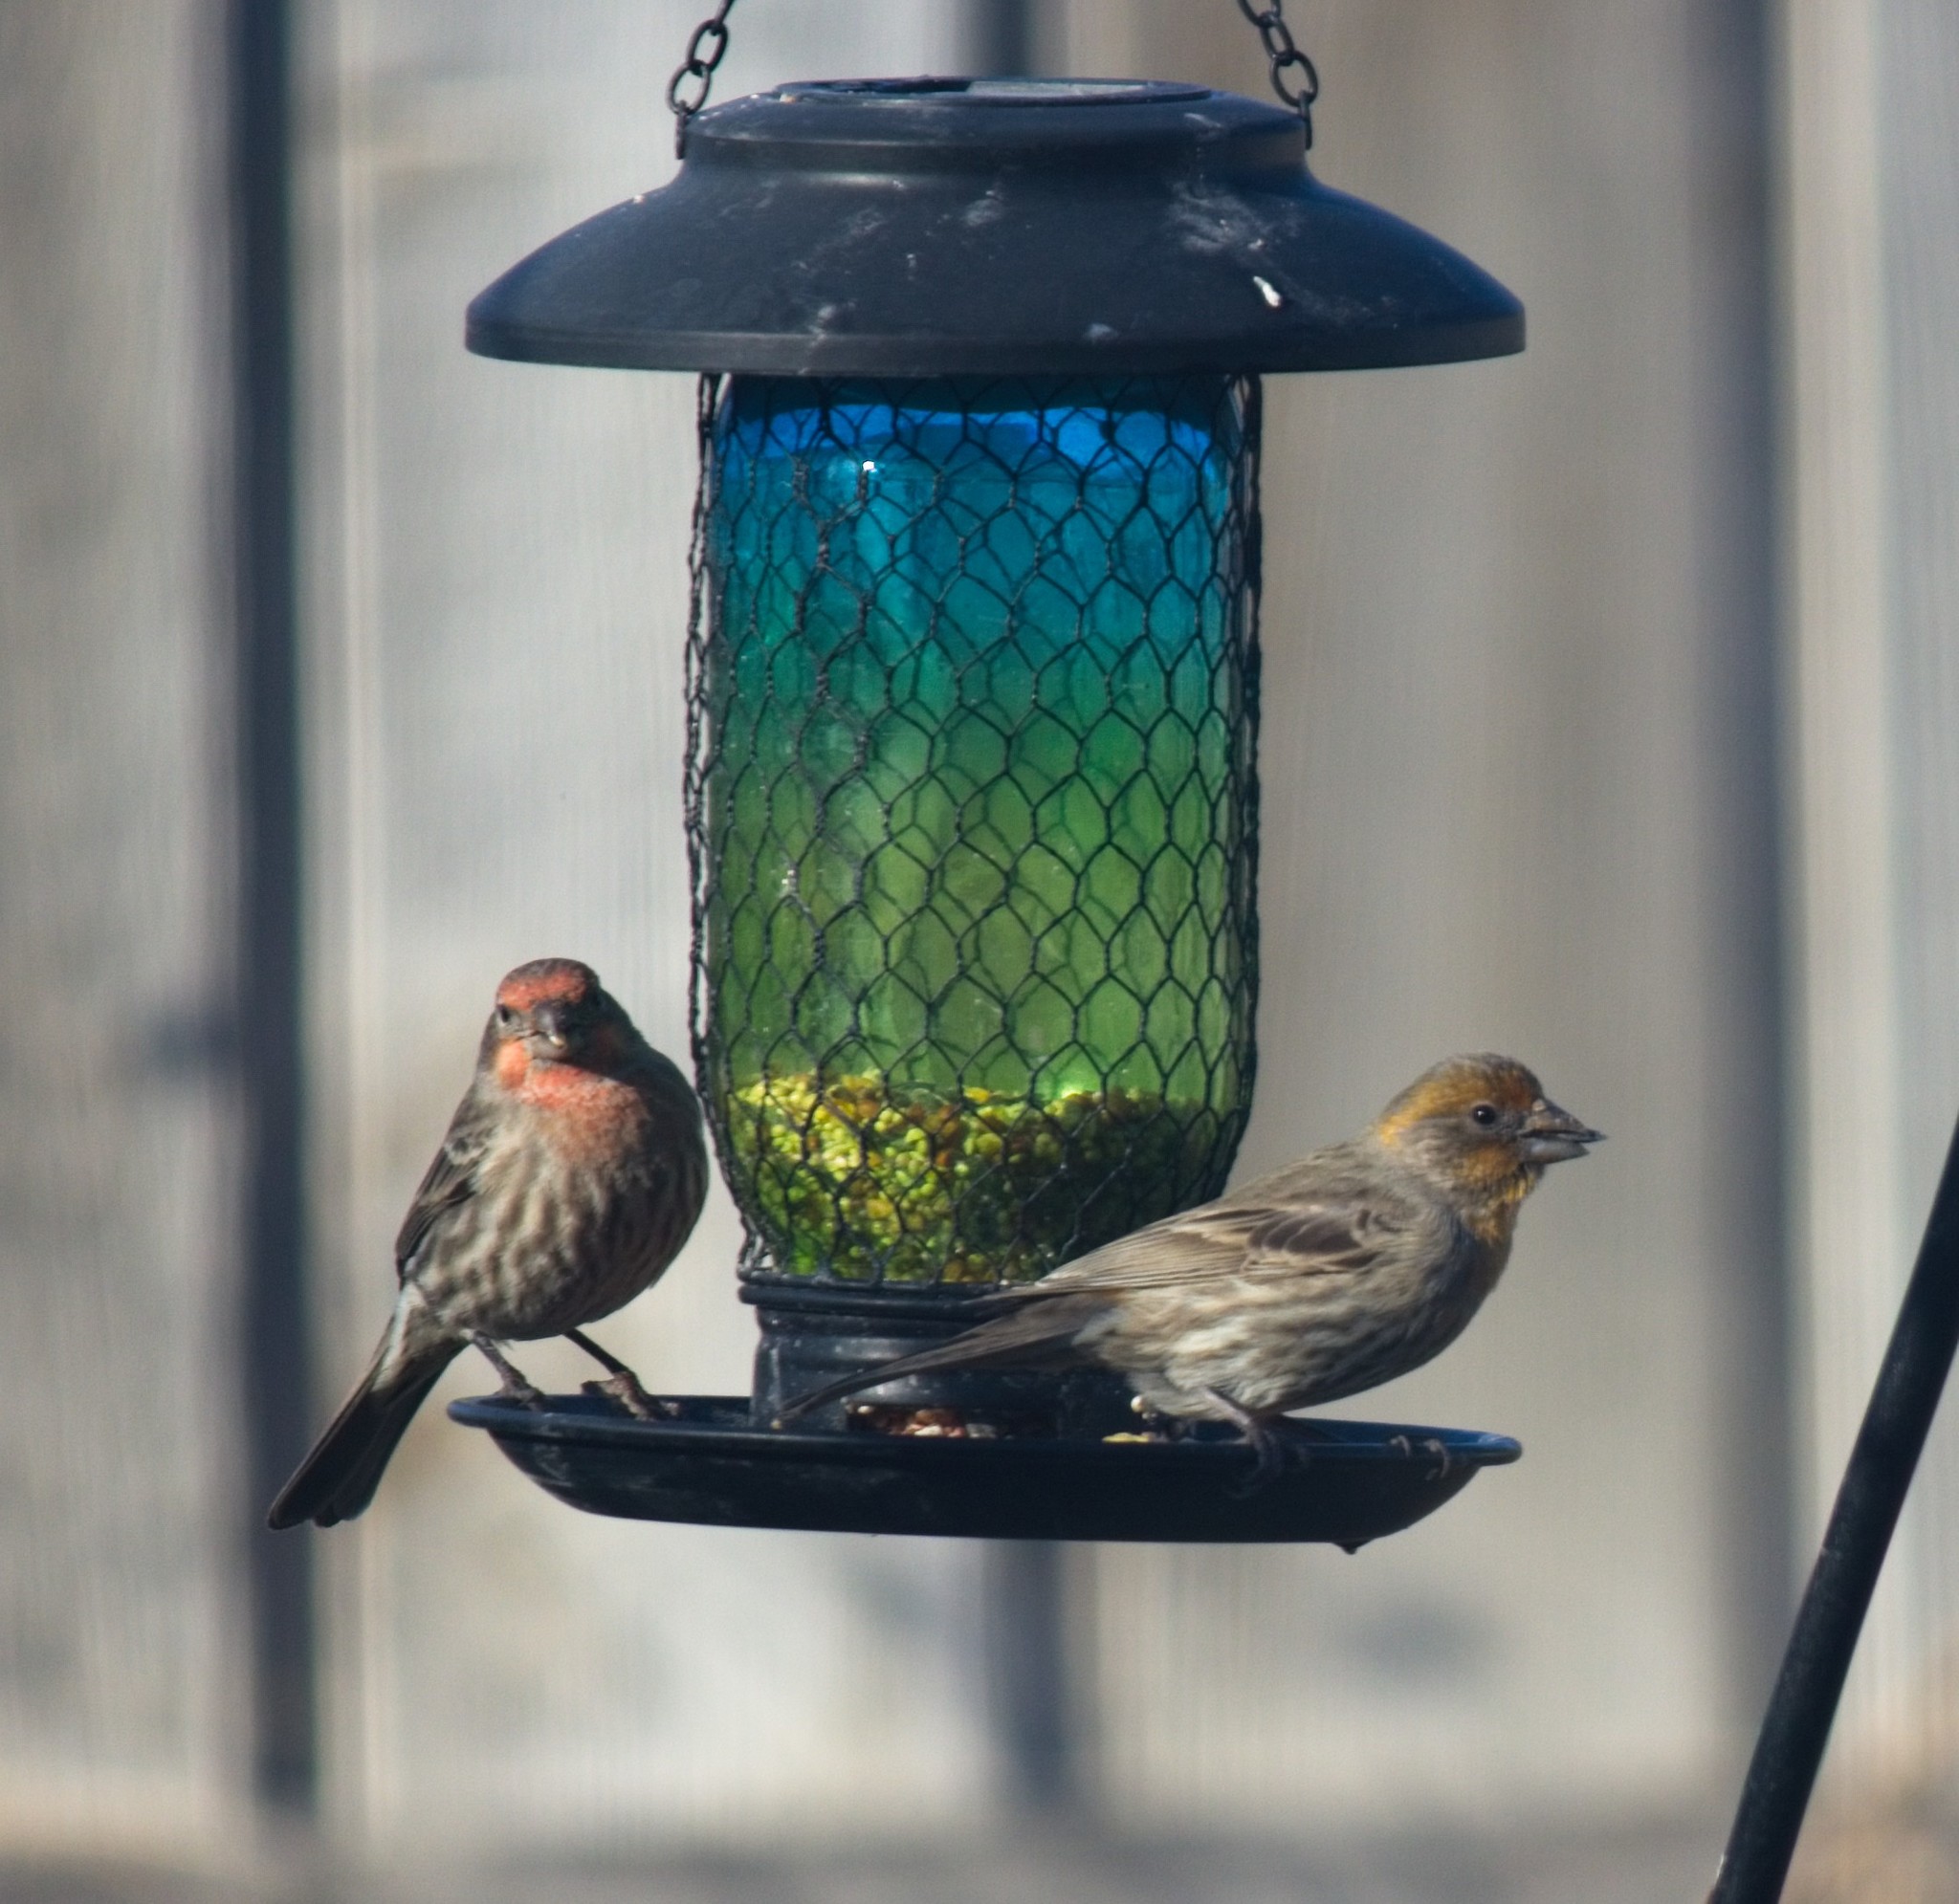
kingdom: Animalia
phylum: Chordata
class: Aves
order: Passeriformes
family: Fringillidae
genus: Haemorhous
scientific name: Haemorhous mexicanus
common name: House finch
